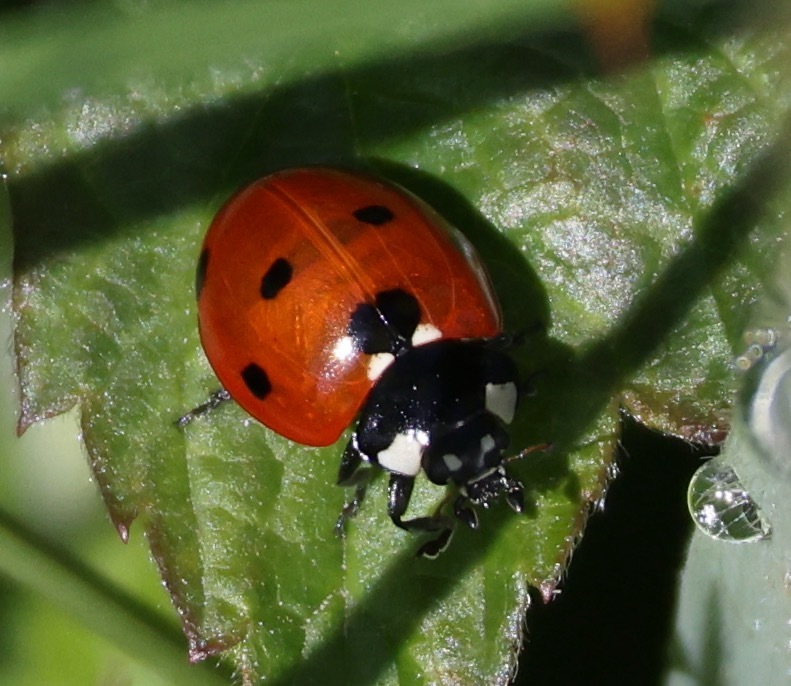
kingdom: Animalia
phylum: Arthropoda
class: Insecta
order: Coleoptera
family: Coccinellidae
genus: Coccinella
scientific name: Coccinella septempunctata
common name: Sevenspotted lady beetle
